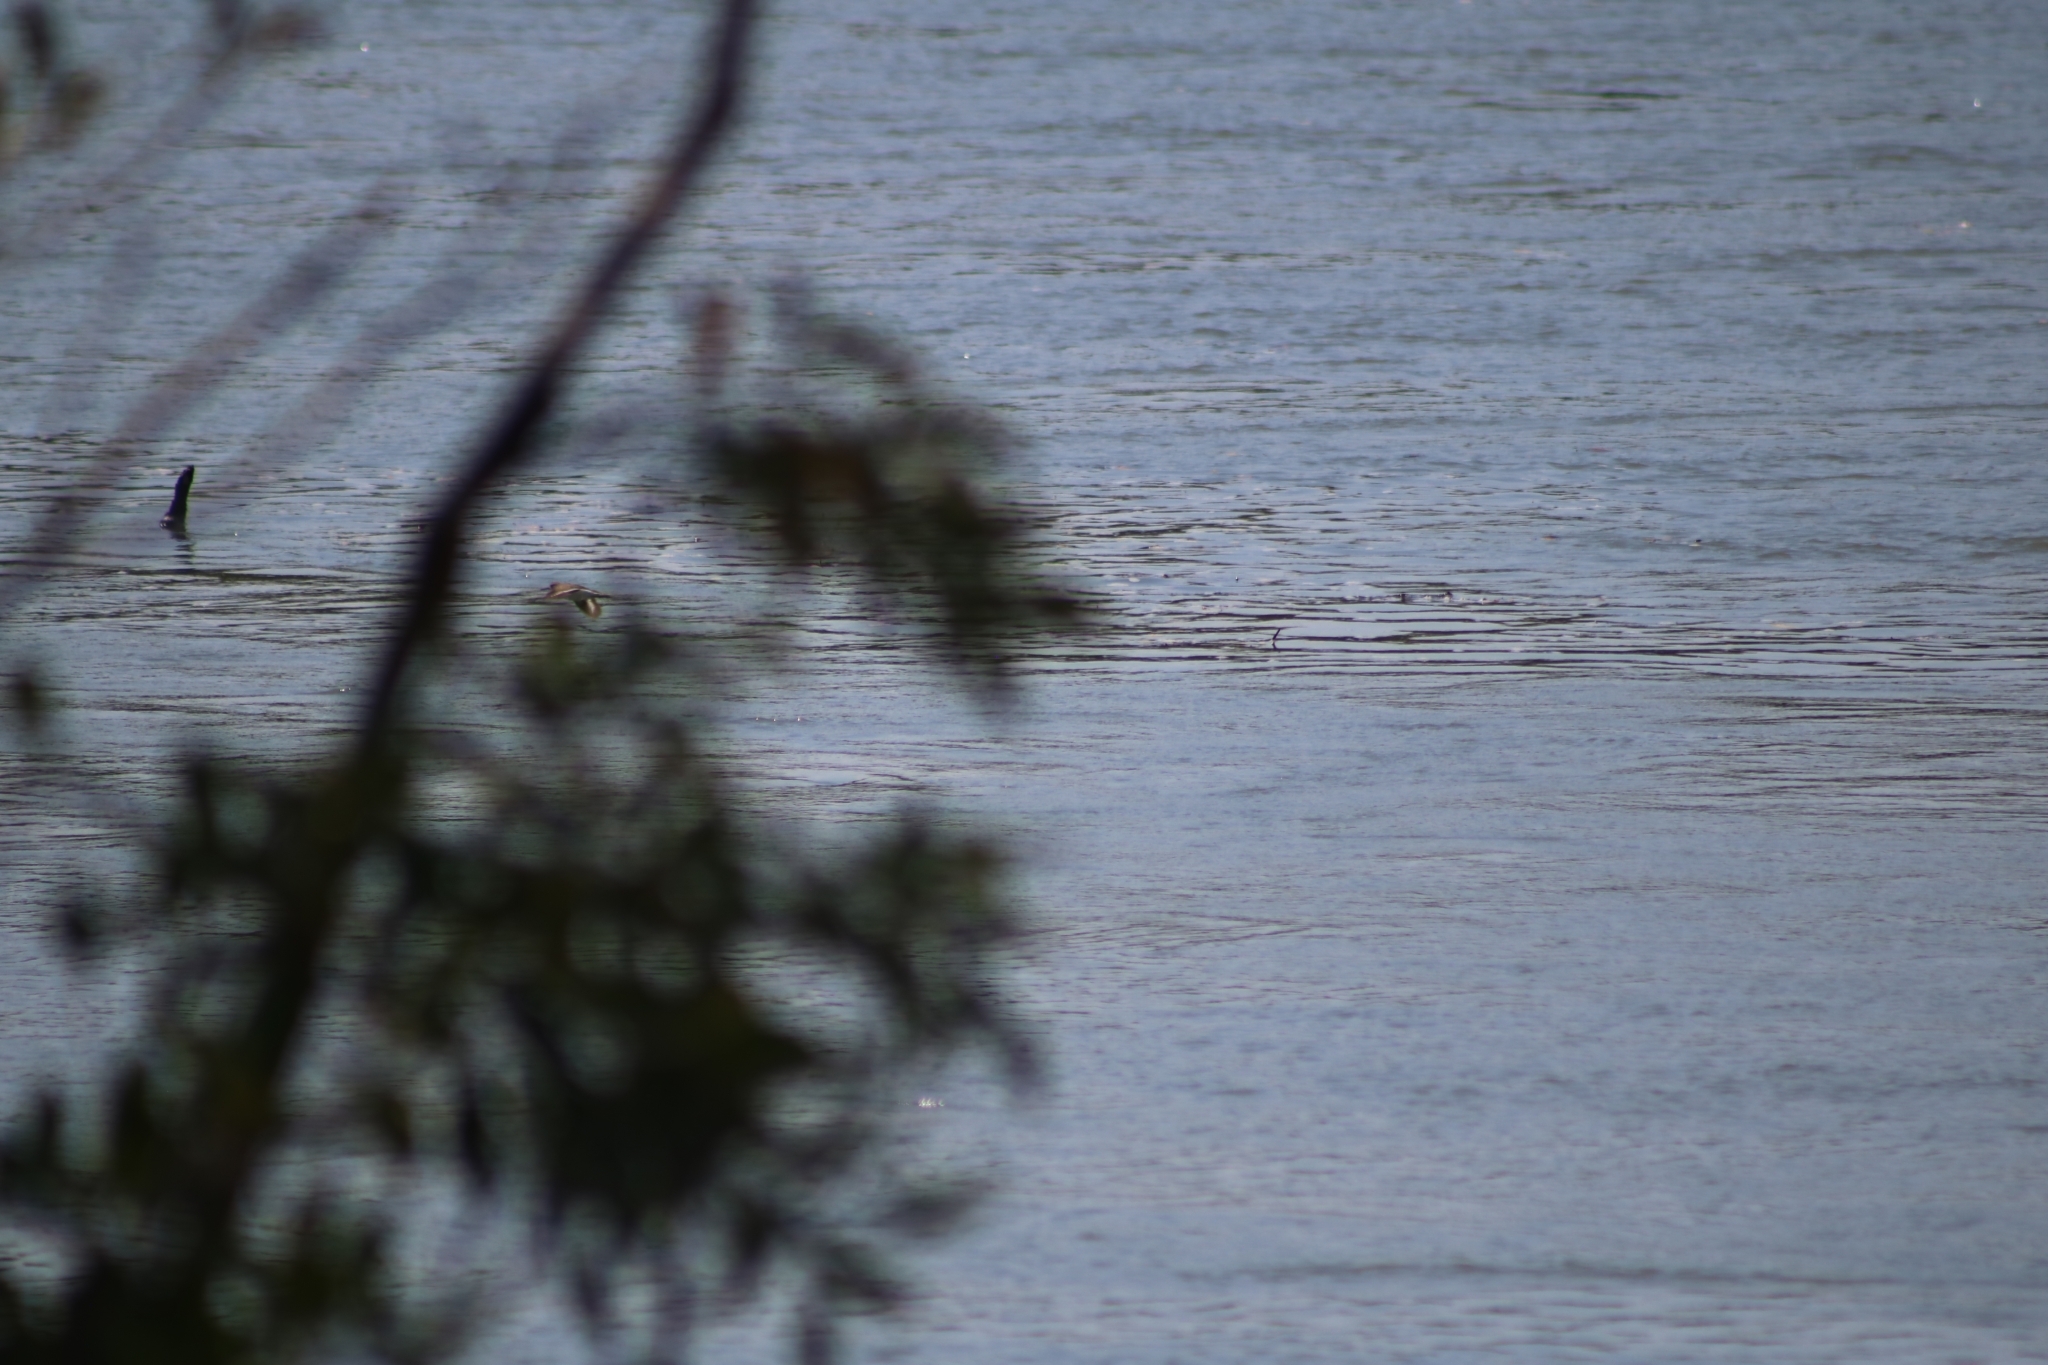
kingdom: Animalia
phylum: Chordata
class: Aves
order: Charadriiformes
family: Scolopacidae
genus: Actitis
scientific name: Actitis hypoleucos
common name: Common sandpiper
